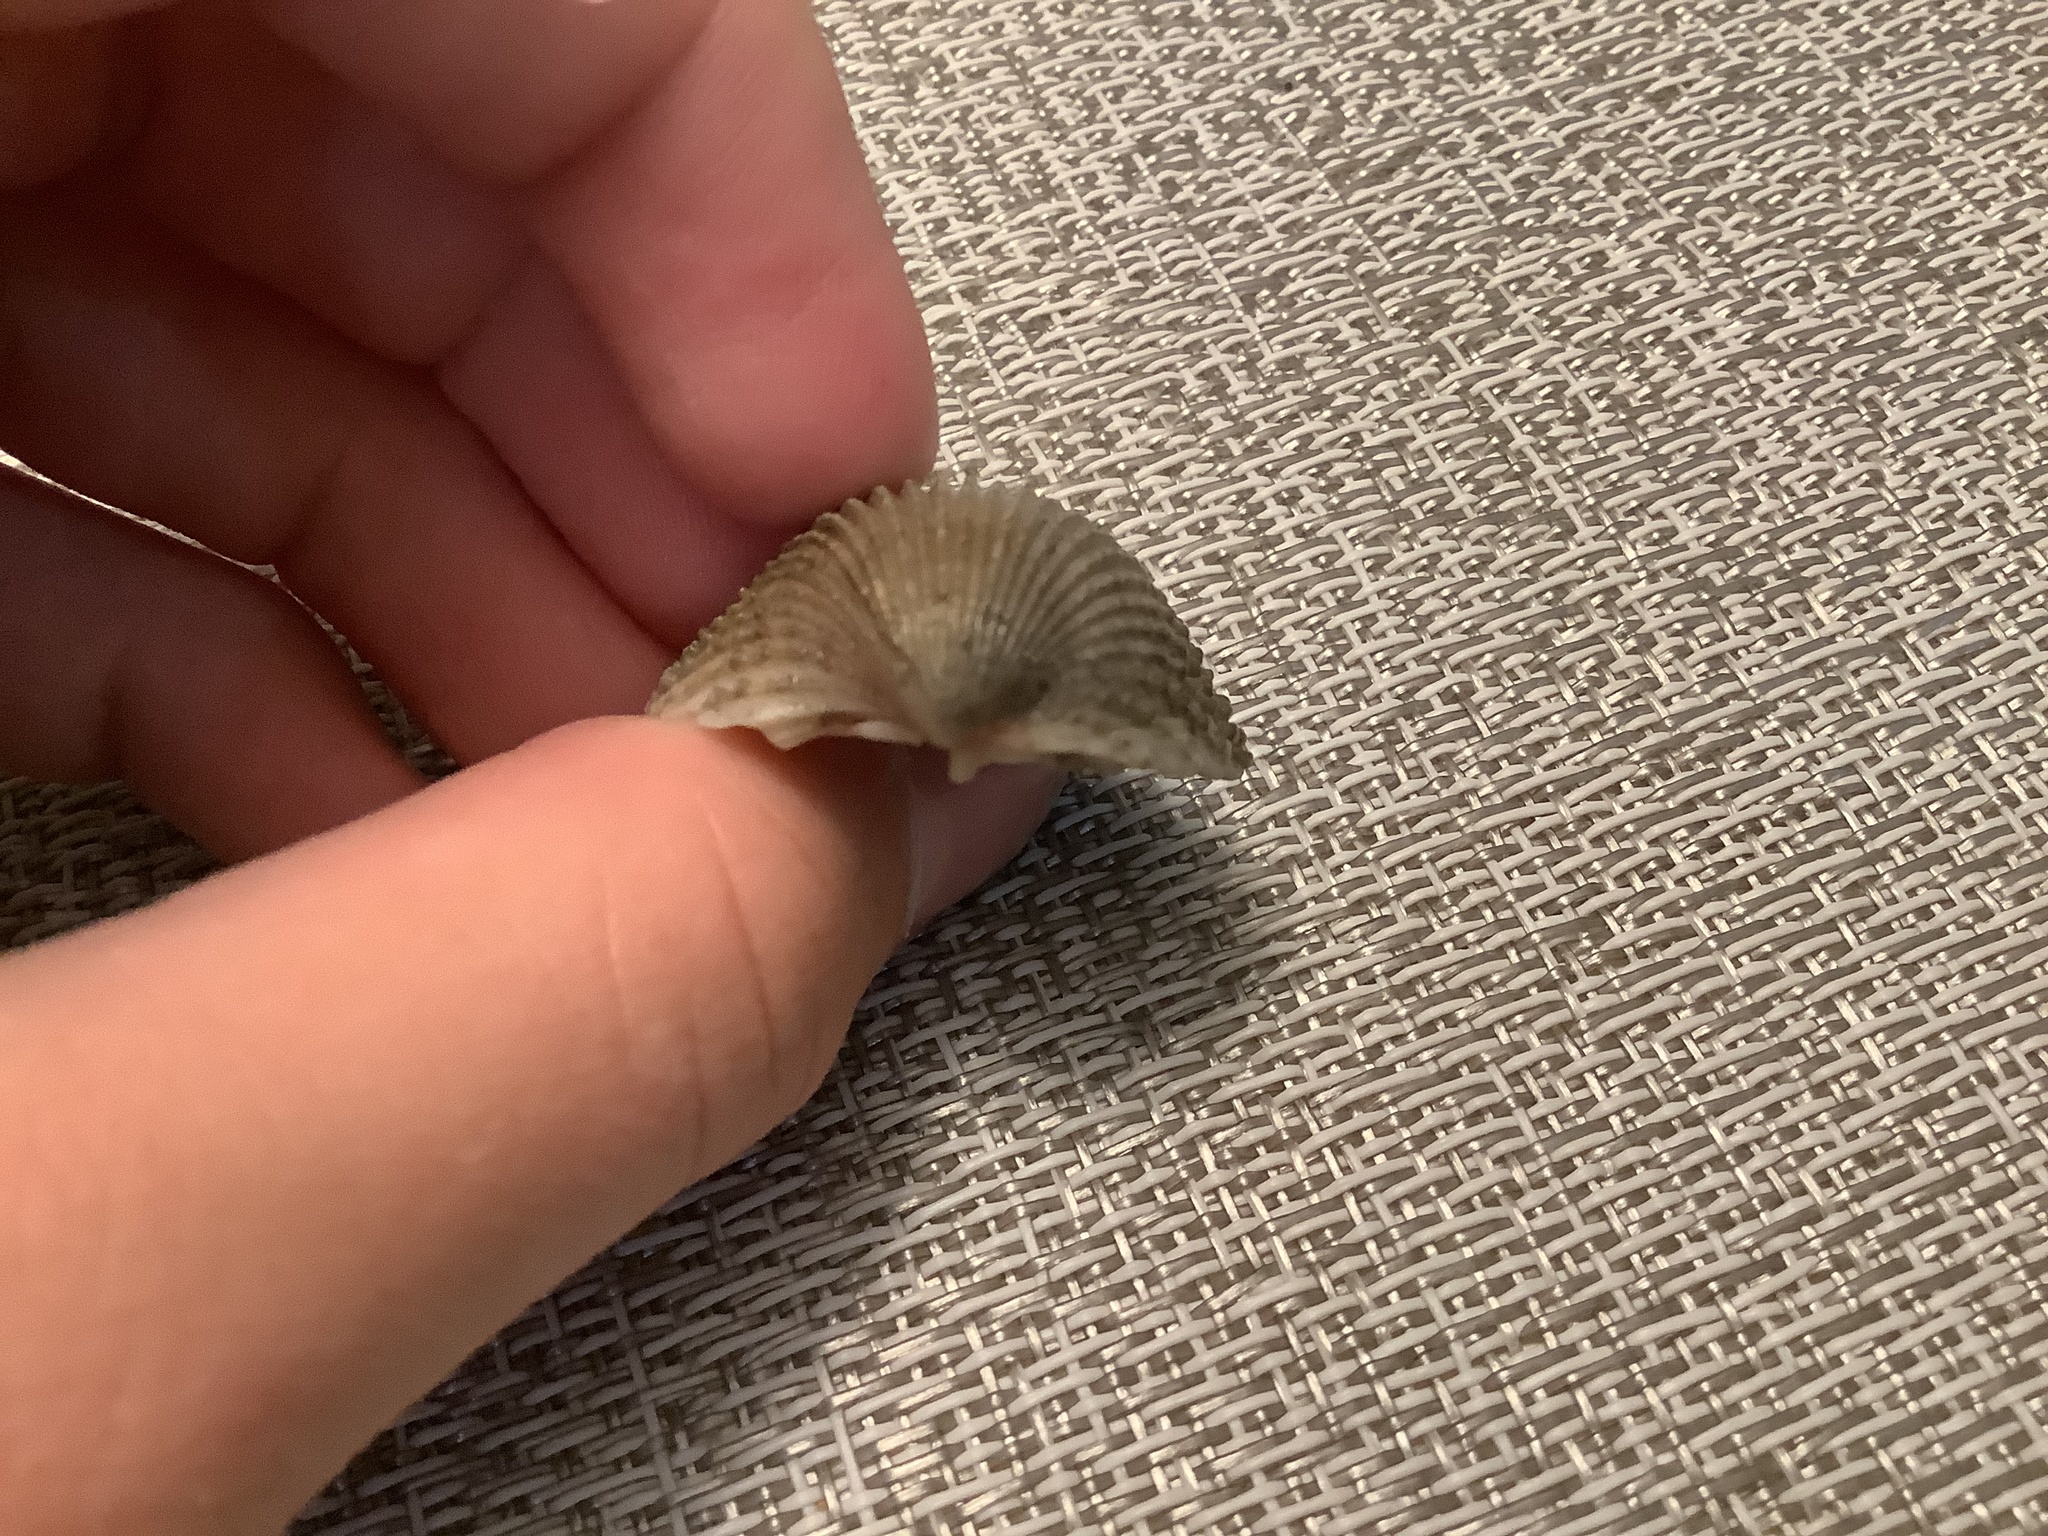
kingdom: Animalia
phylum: Mollusca
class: Bivalvia
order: Cardiida
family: Cardiidae
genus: Trachycardium
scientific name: Trachycardium egmontianum
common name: Florida pricklycockle
